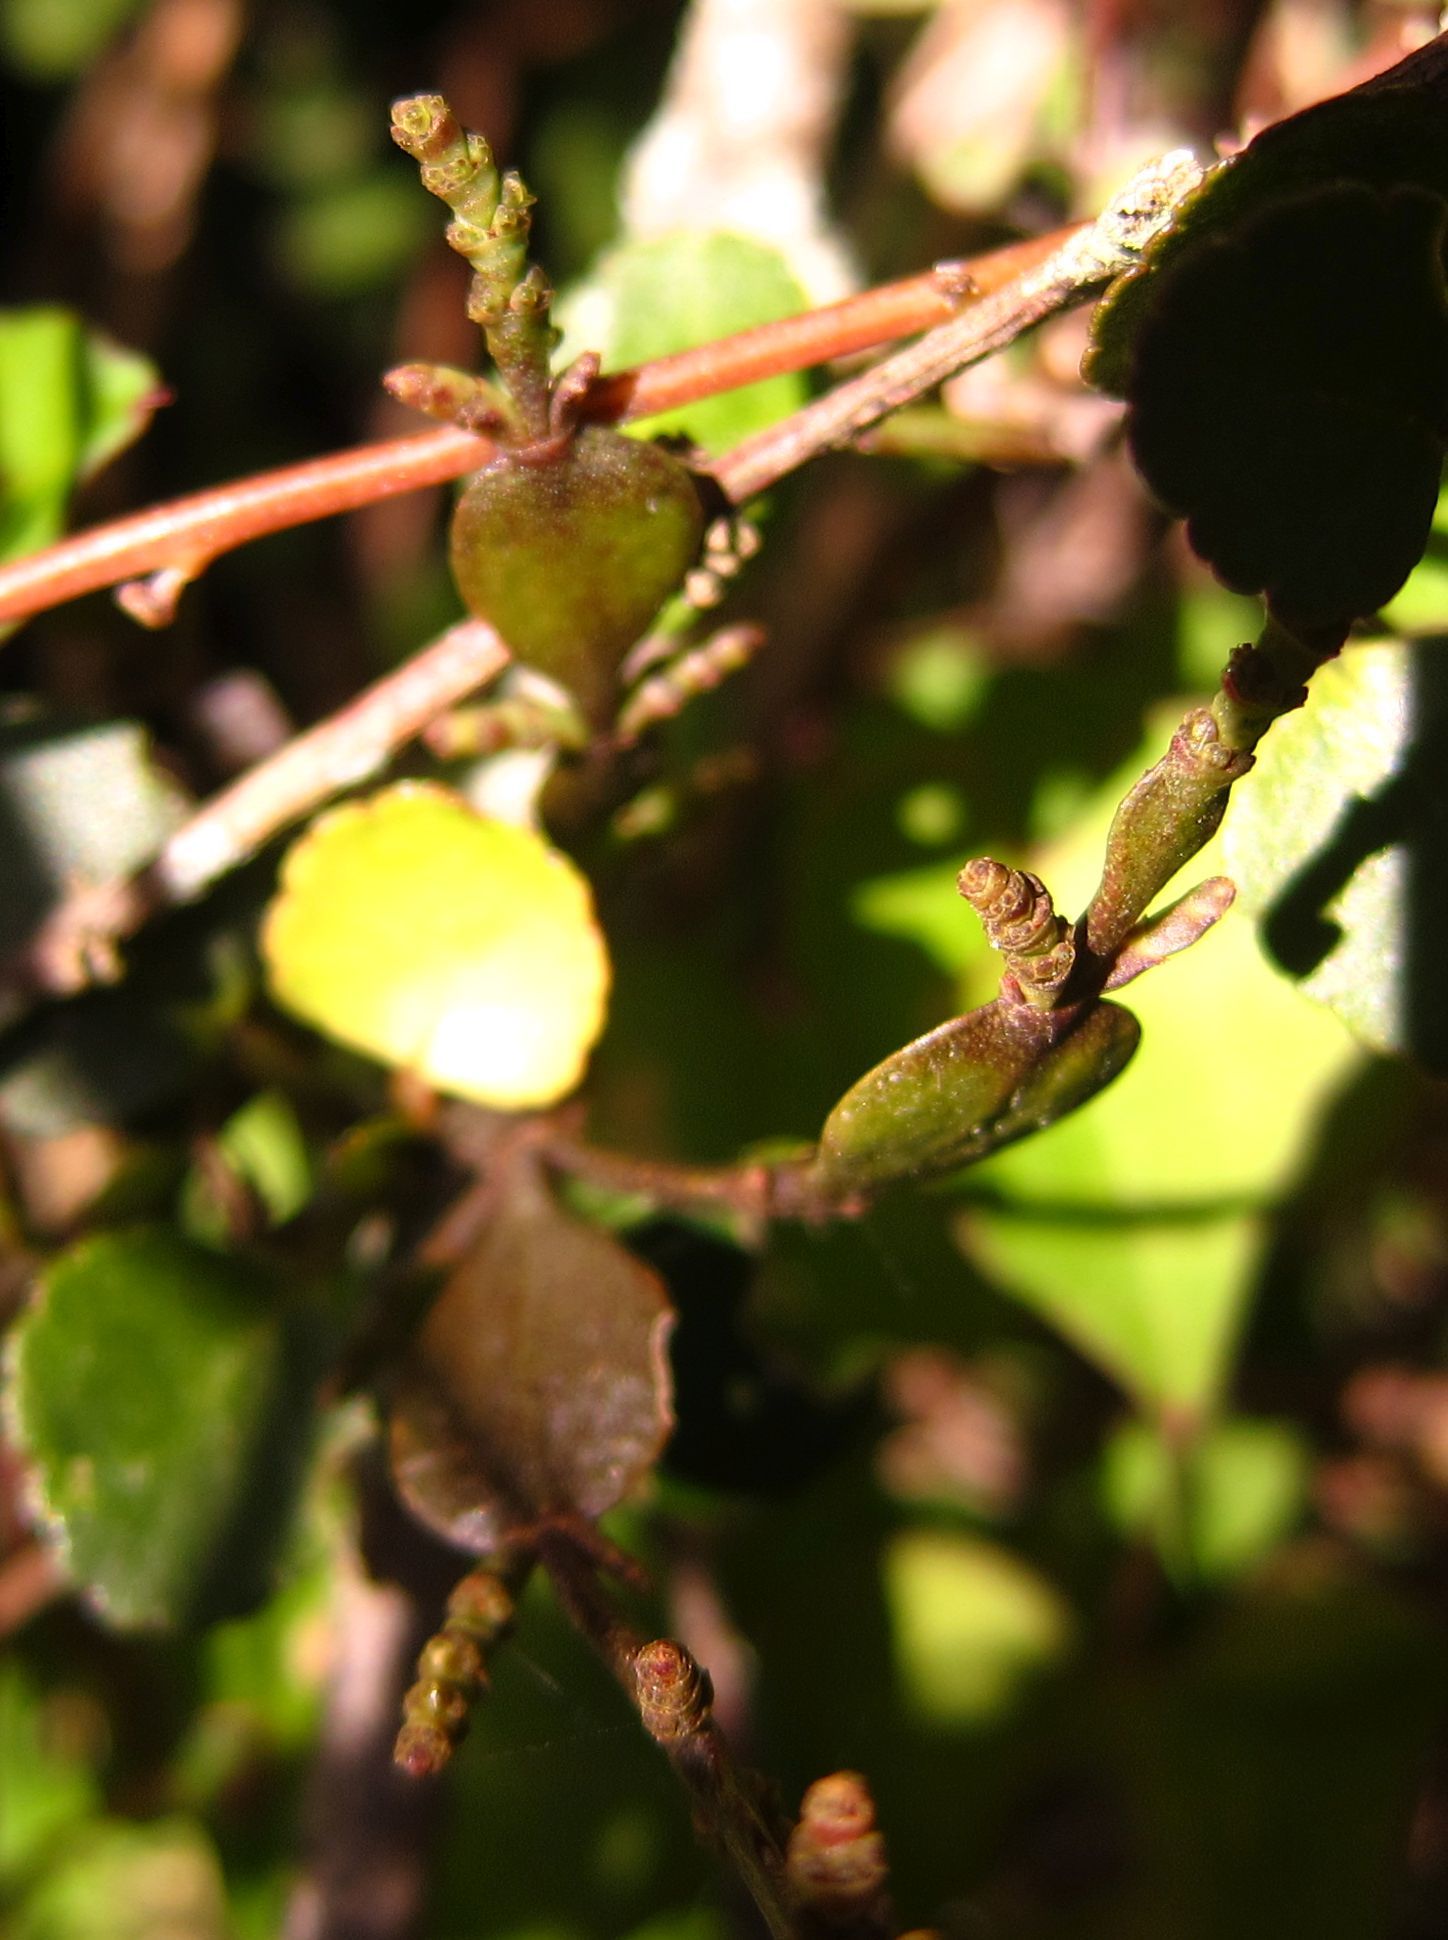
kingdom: Plantae
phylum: Tracheophyta
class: Magnoliopsida
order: Santalales
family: Viscaceae
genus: Korthalsella
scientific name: Korthalsella lindsayi
